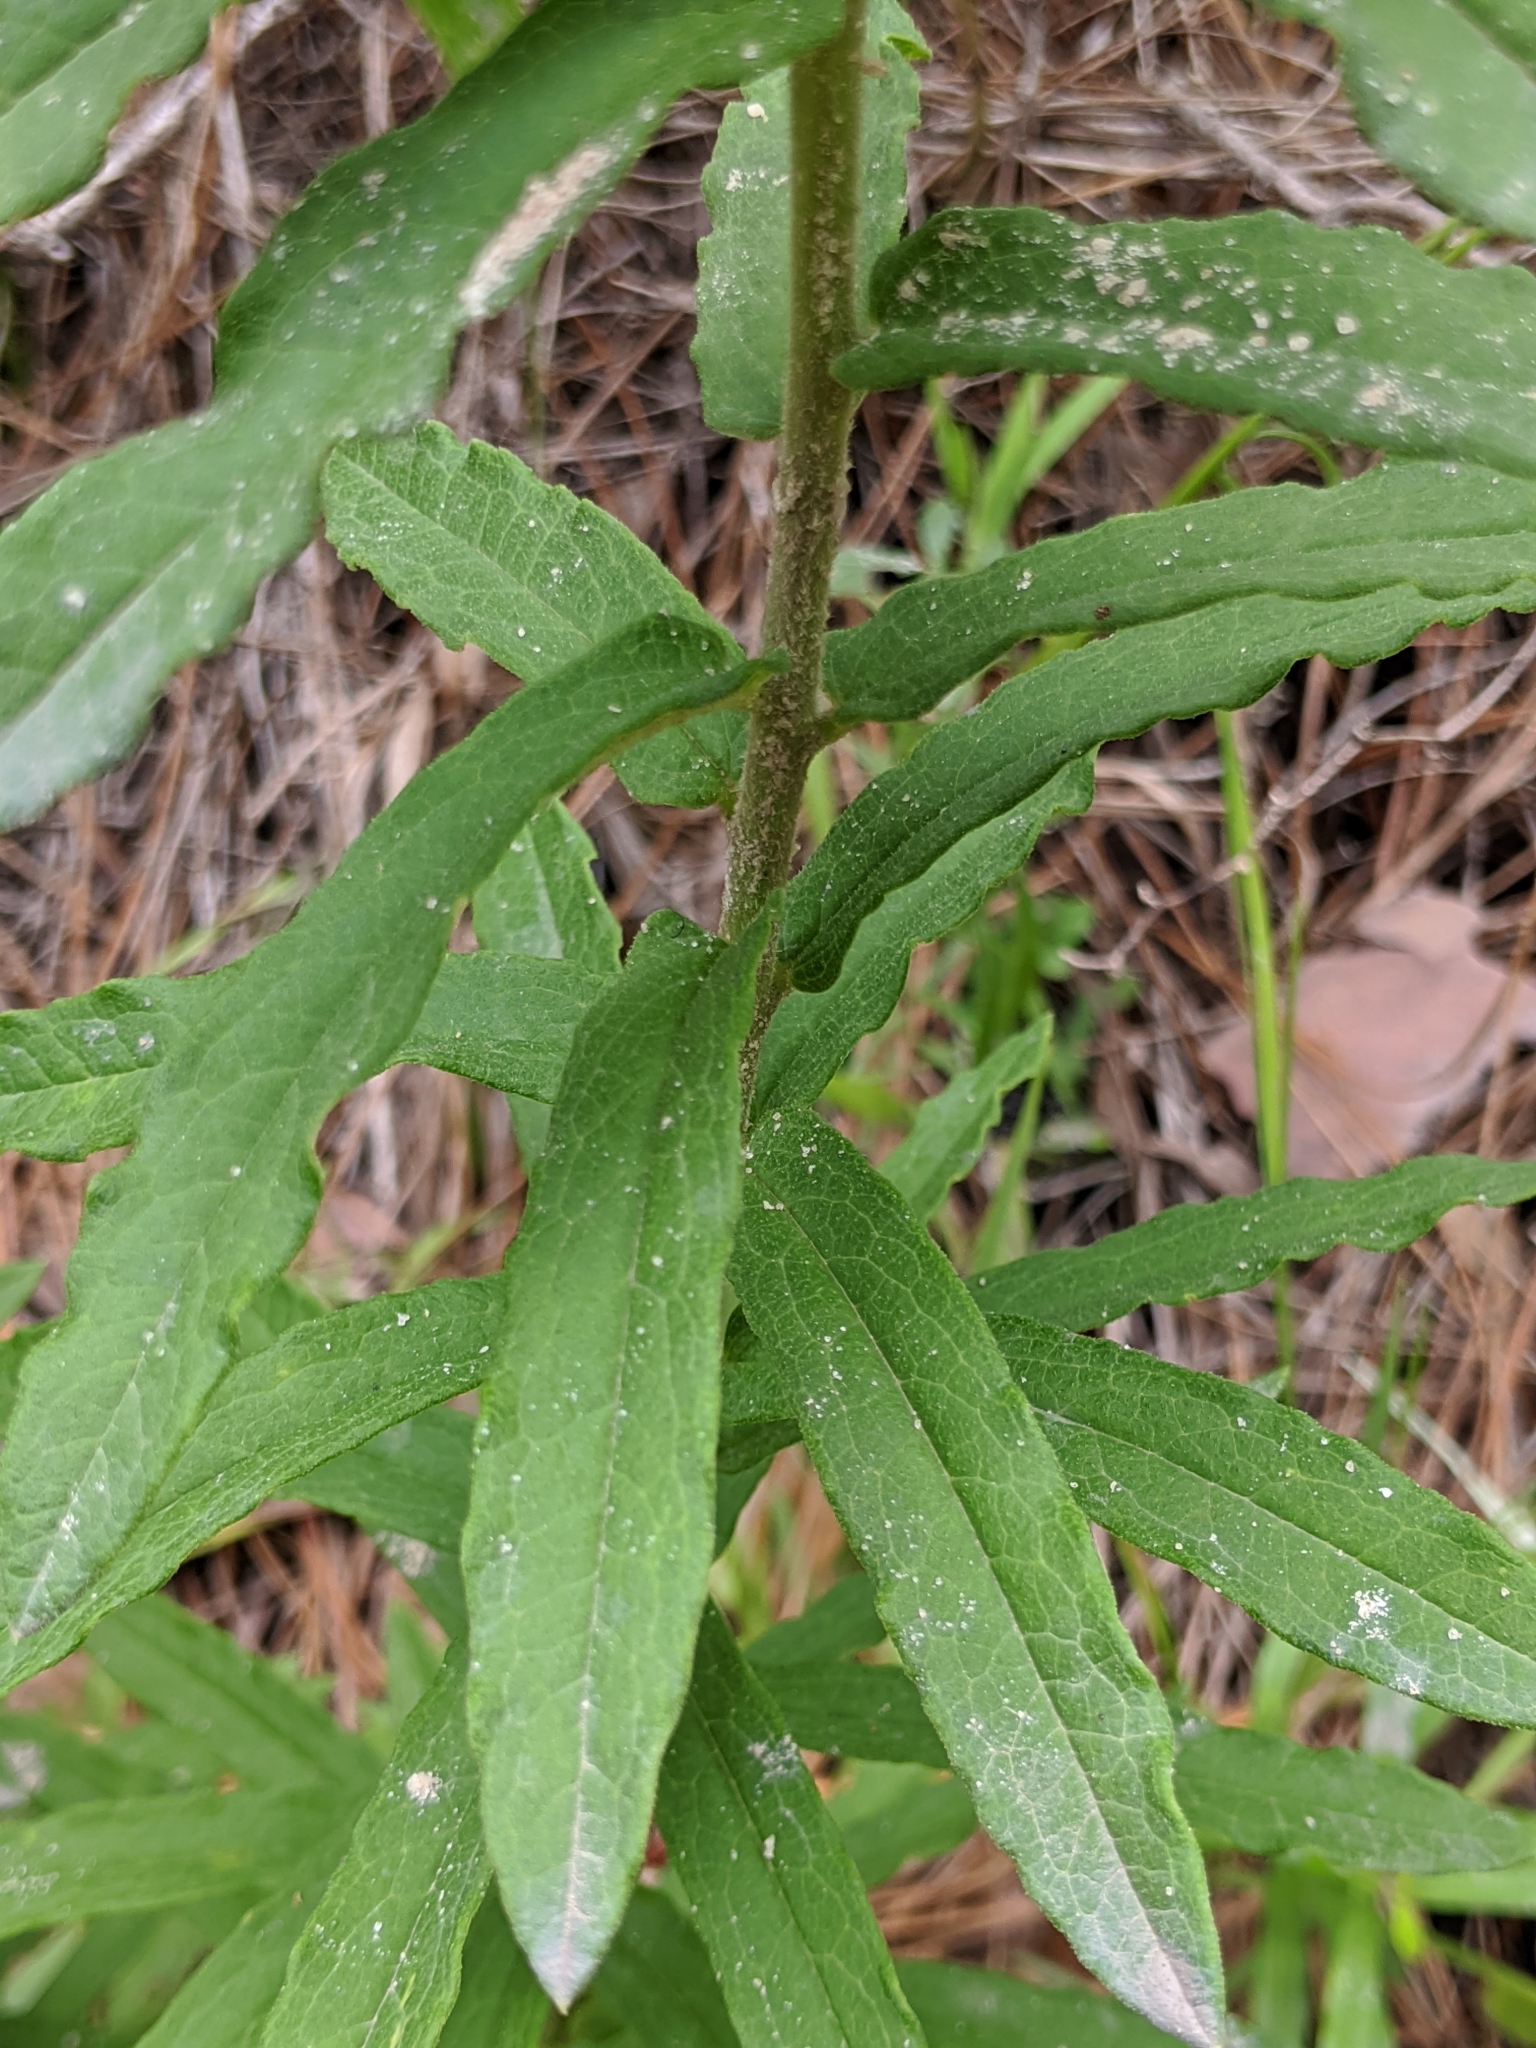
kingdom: Plantae
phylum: Tracheophyta
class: Magnoliopsida
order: Gentianales
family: Apocynaceae
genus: Asclepias
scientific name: Asclepias tuberosa
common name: Butterfly milkweed
